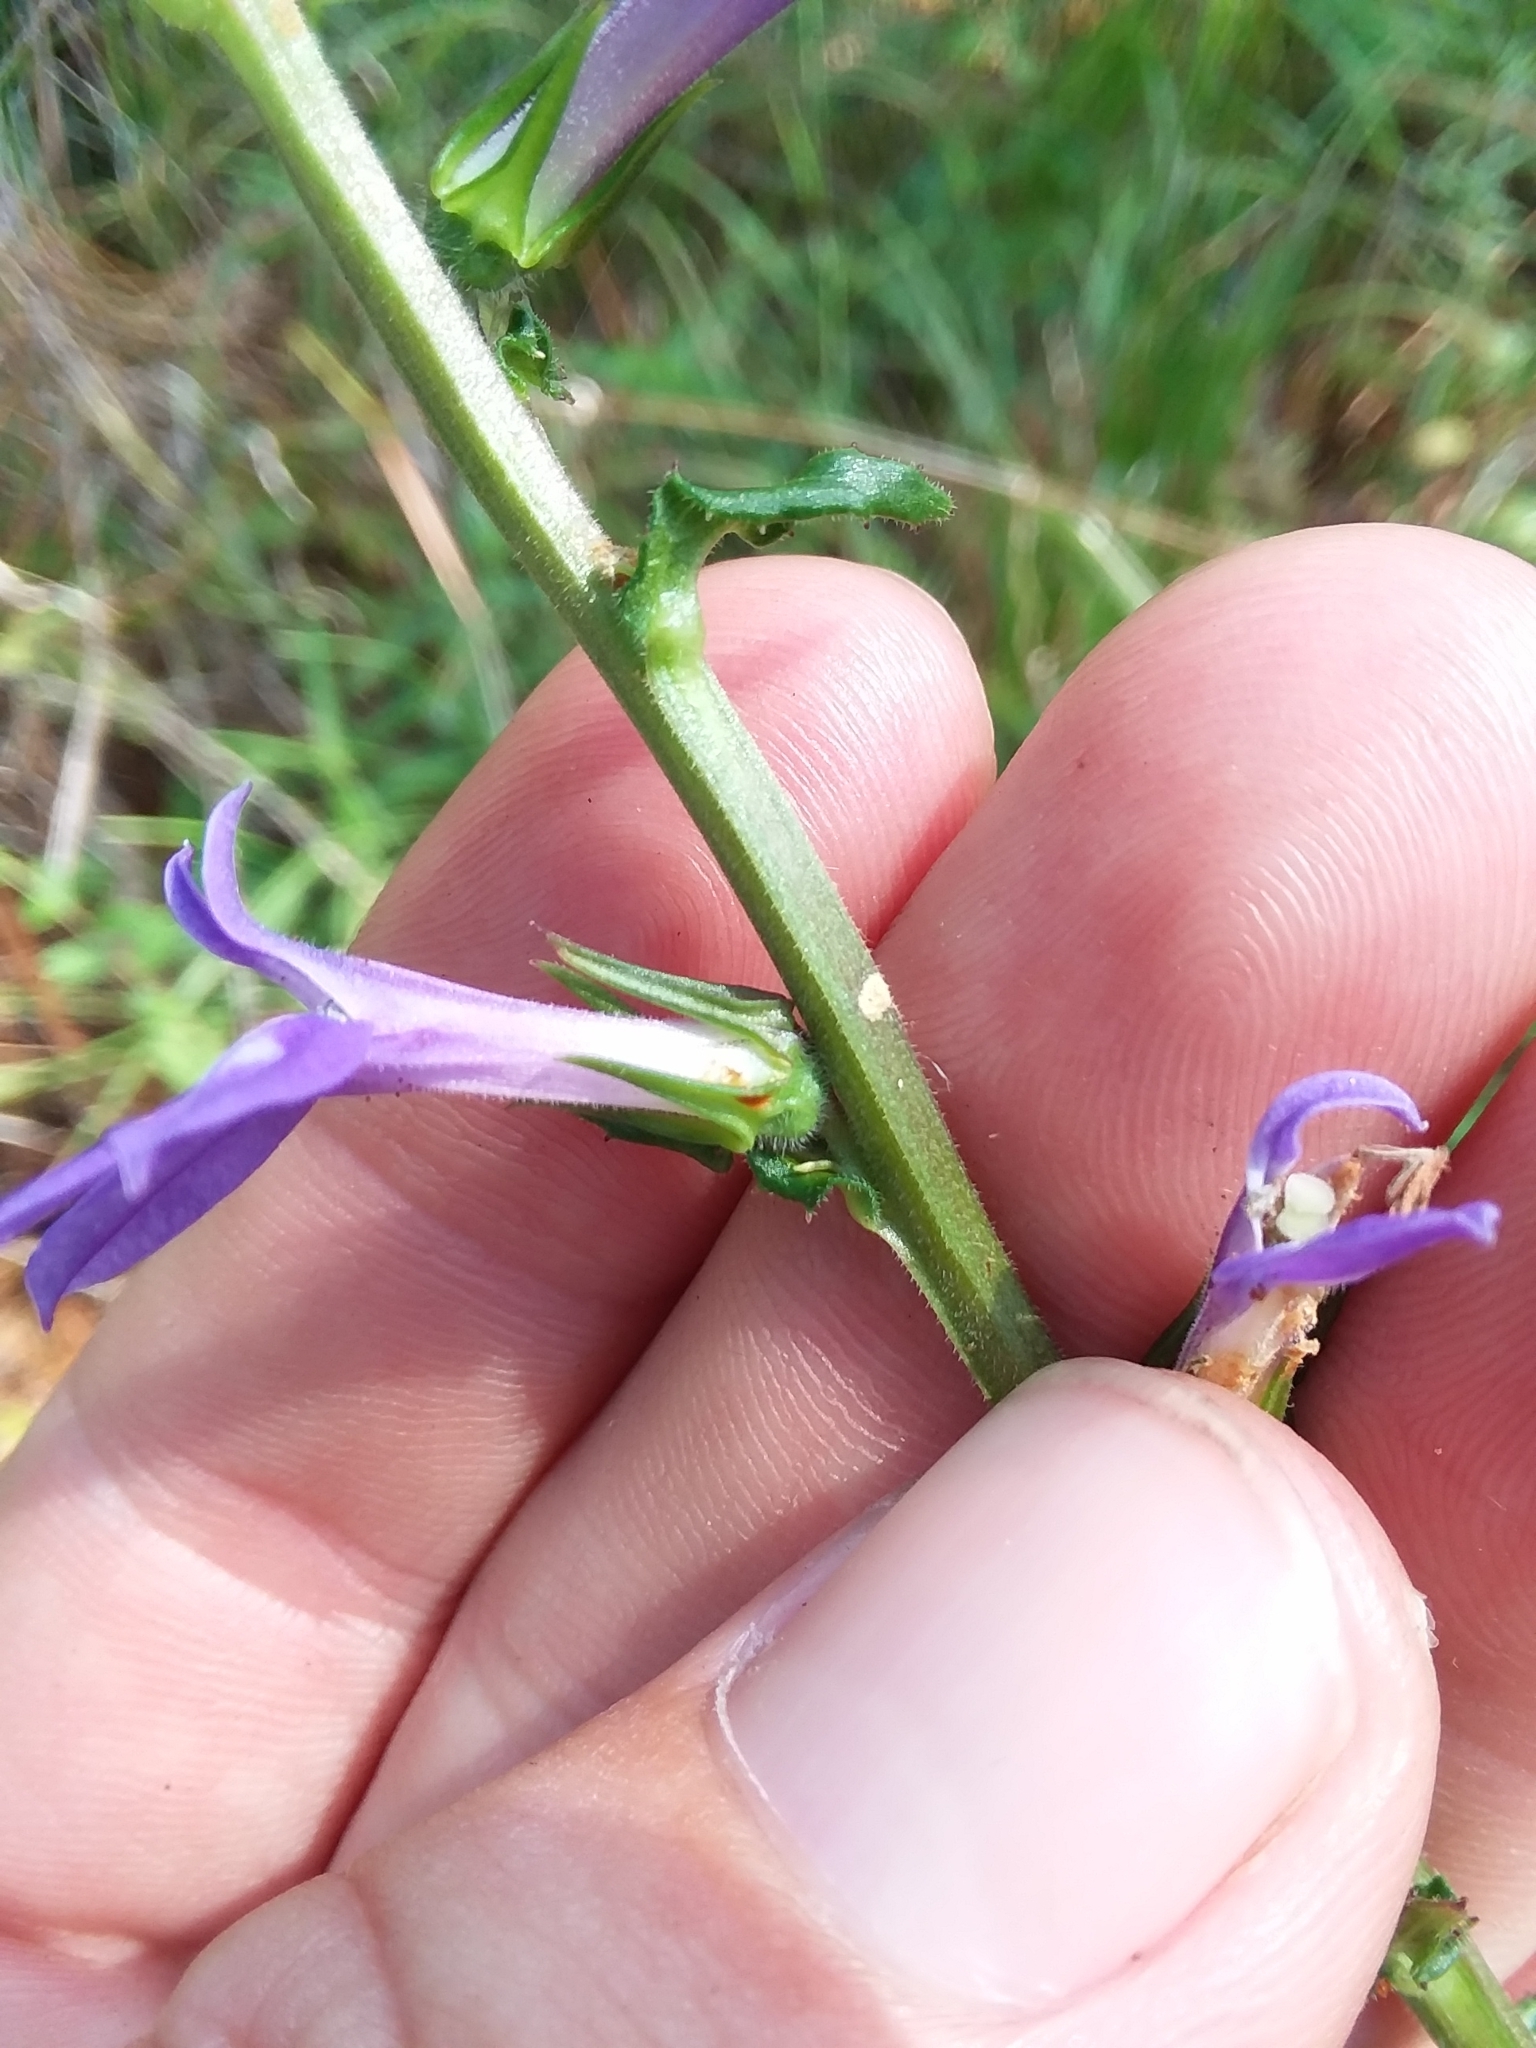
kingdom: Plantae
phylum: Tracheophyta
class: Magnoliopsida
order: Asterales
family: Campanulaceae
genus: Lobelia
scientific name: Lobelia puberula
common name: Purple dewdrop
